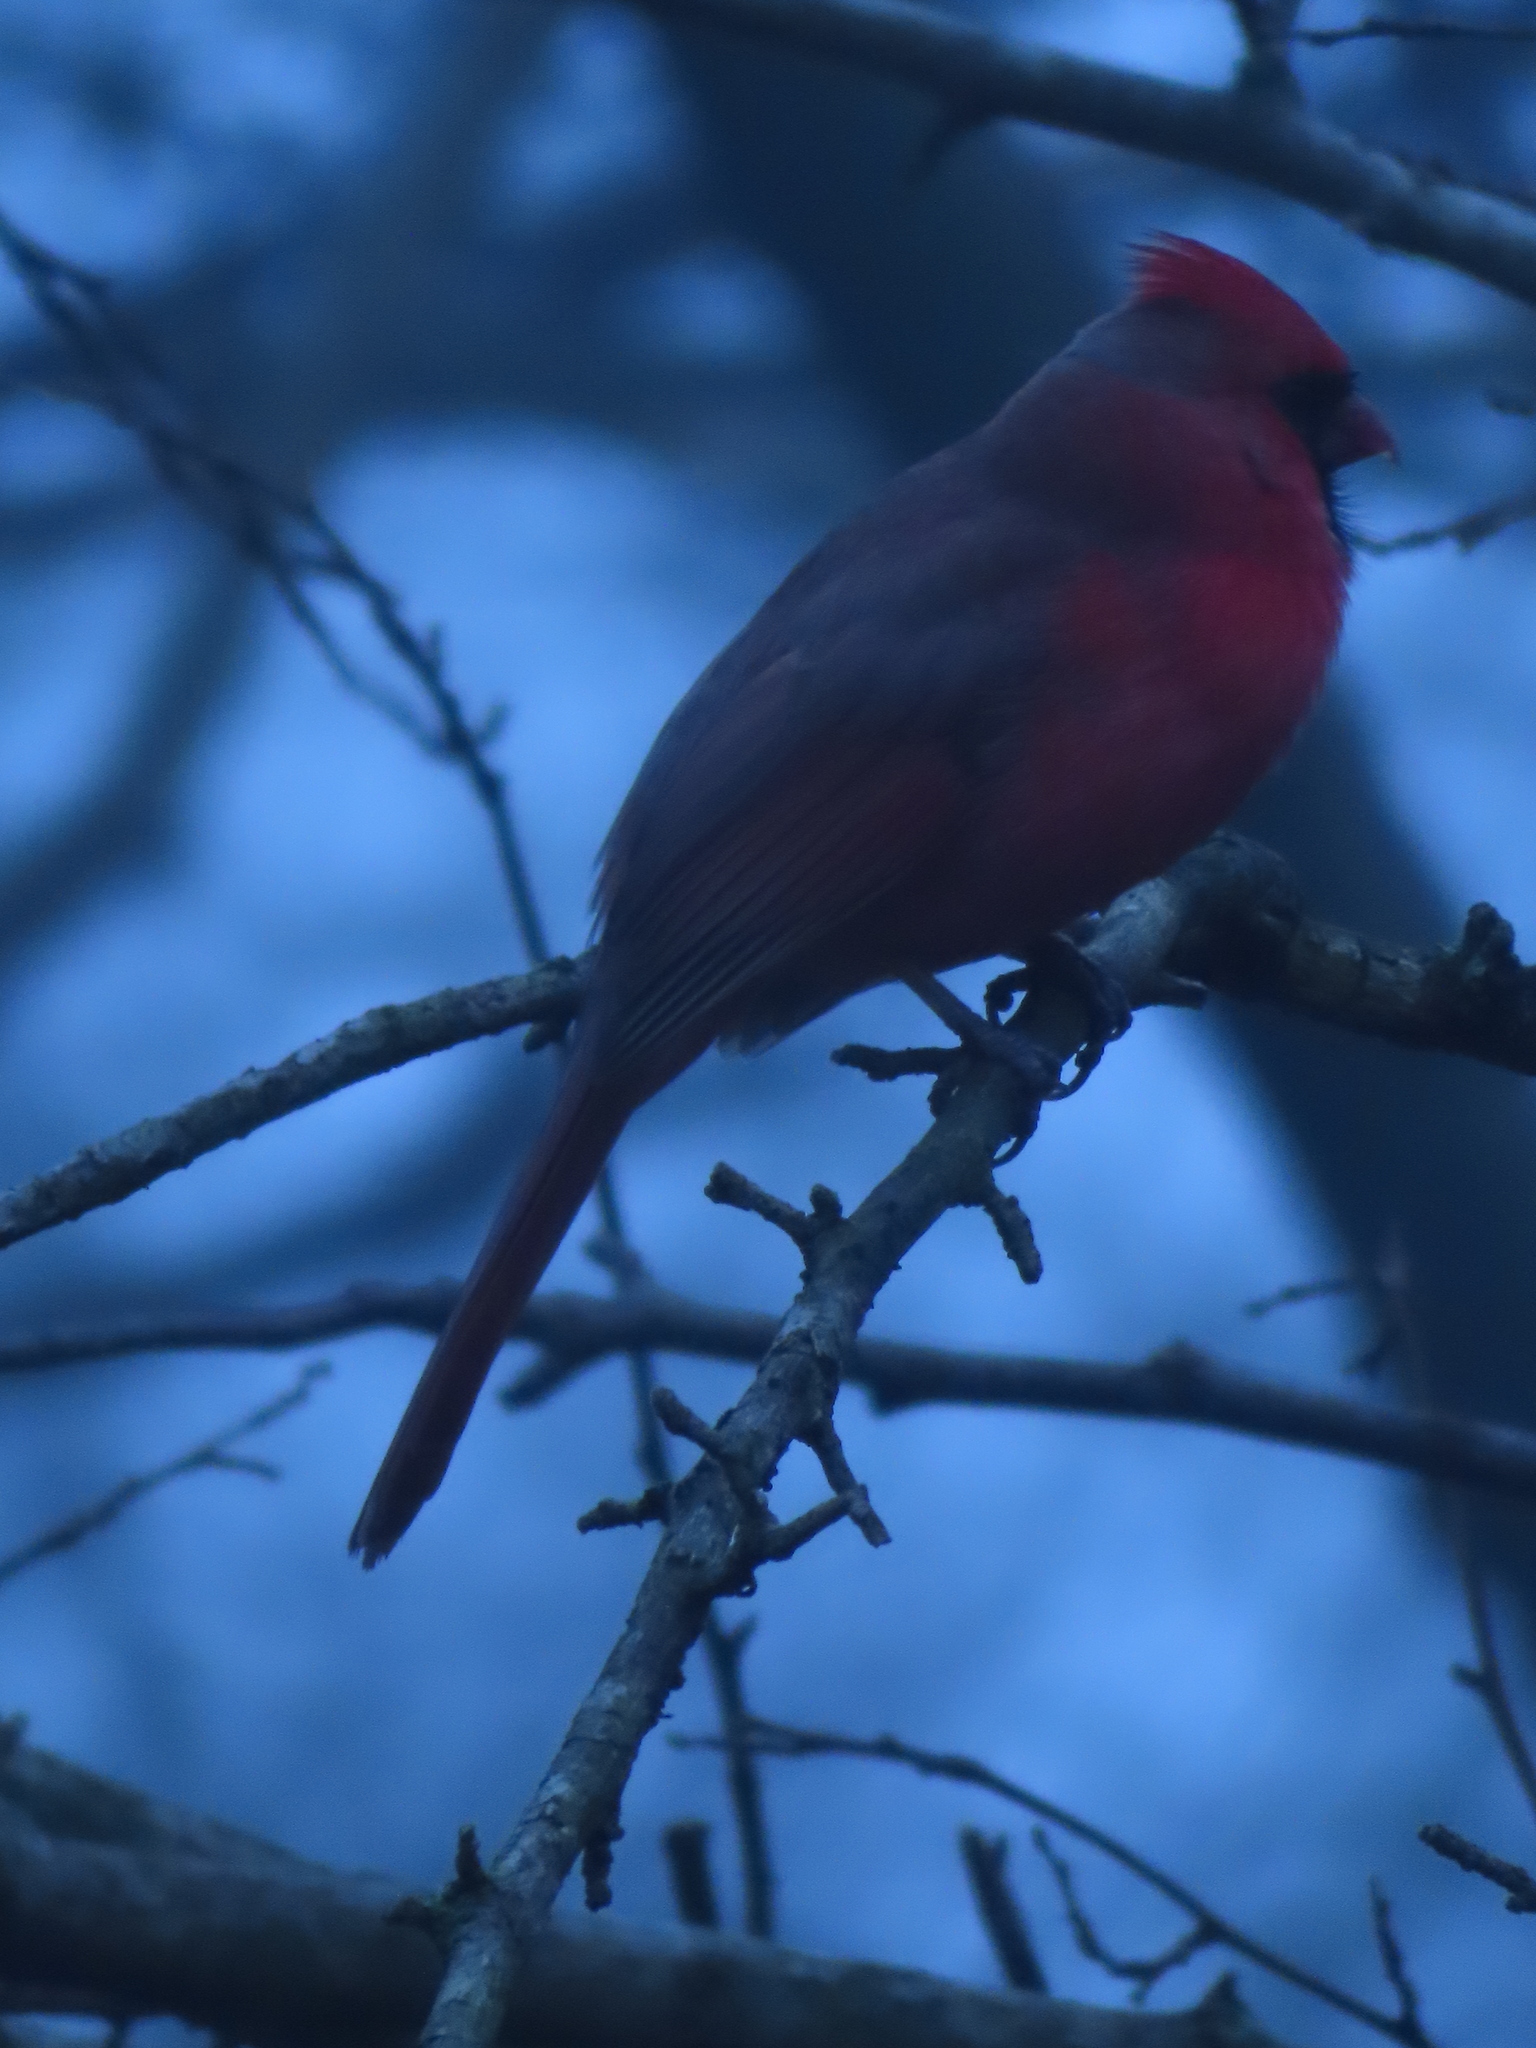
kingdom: Animalia
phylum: Chordata
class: Aves
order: Passeriformes
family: Cardinalidae
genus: Cardinalis
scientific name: Cardinalis cardinalis
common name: Northern cardinal
